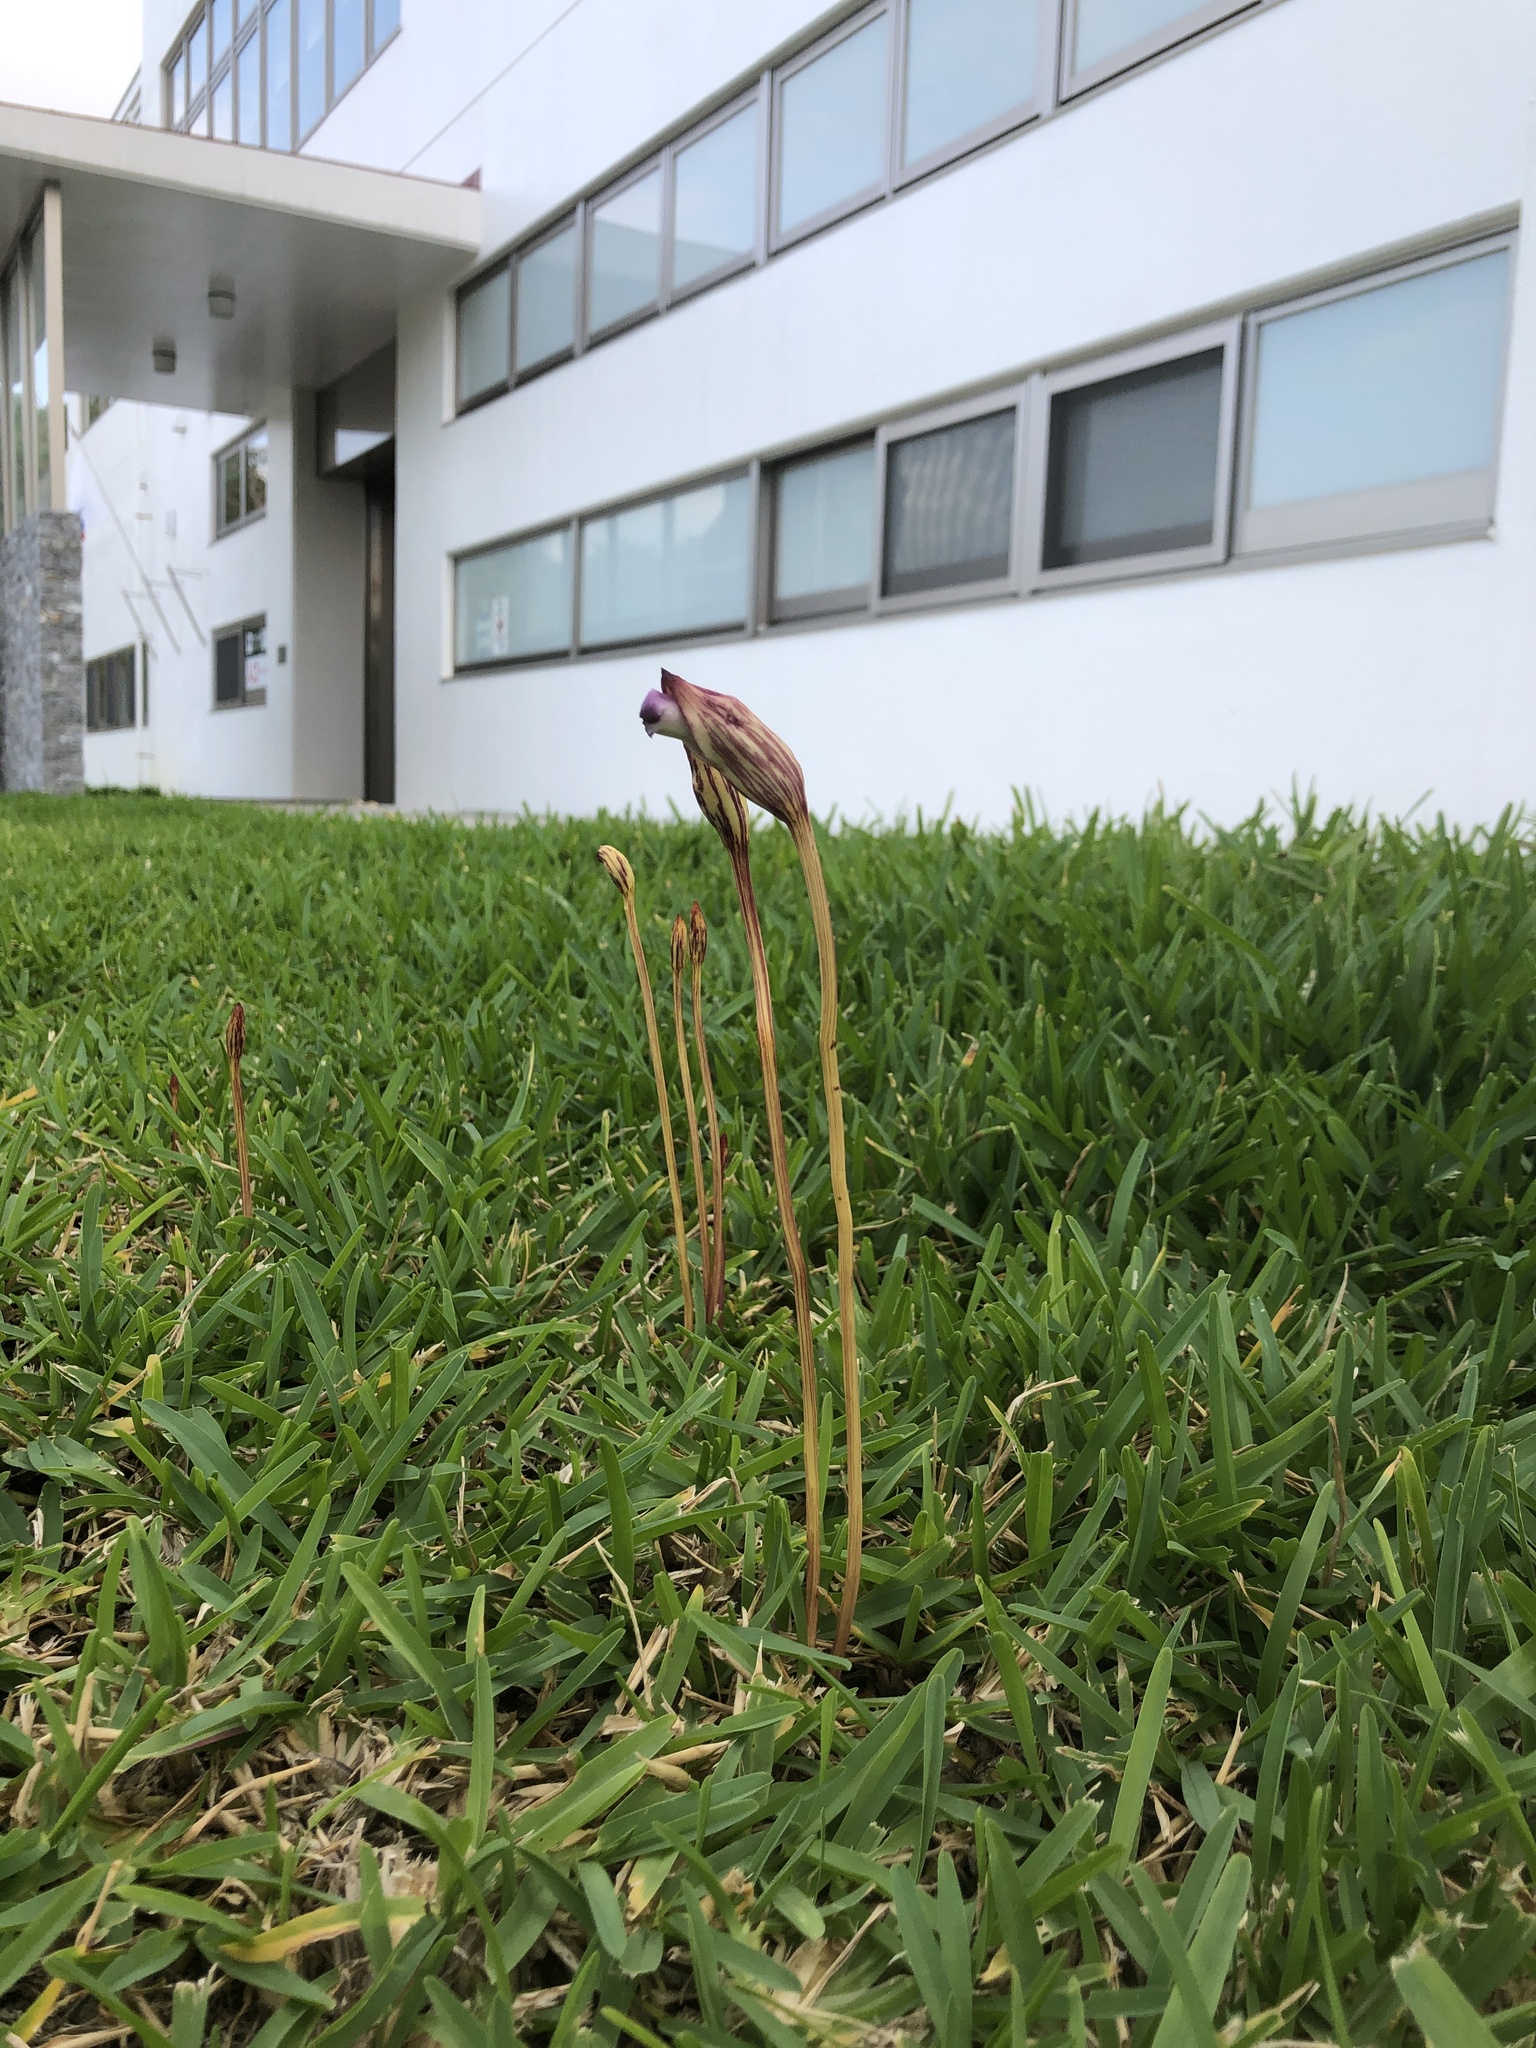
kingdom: Plantae
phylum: Tracheophyta
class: Magnoliopsida
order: Lamiales
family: Orobanchaceae
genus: Aeginetia
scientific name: Aeginetia indica
